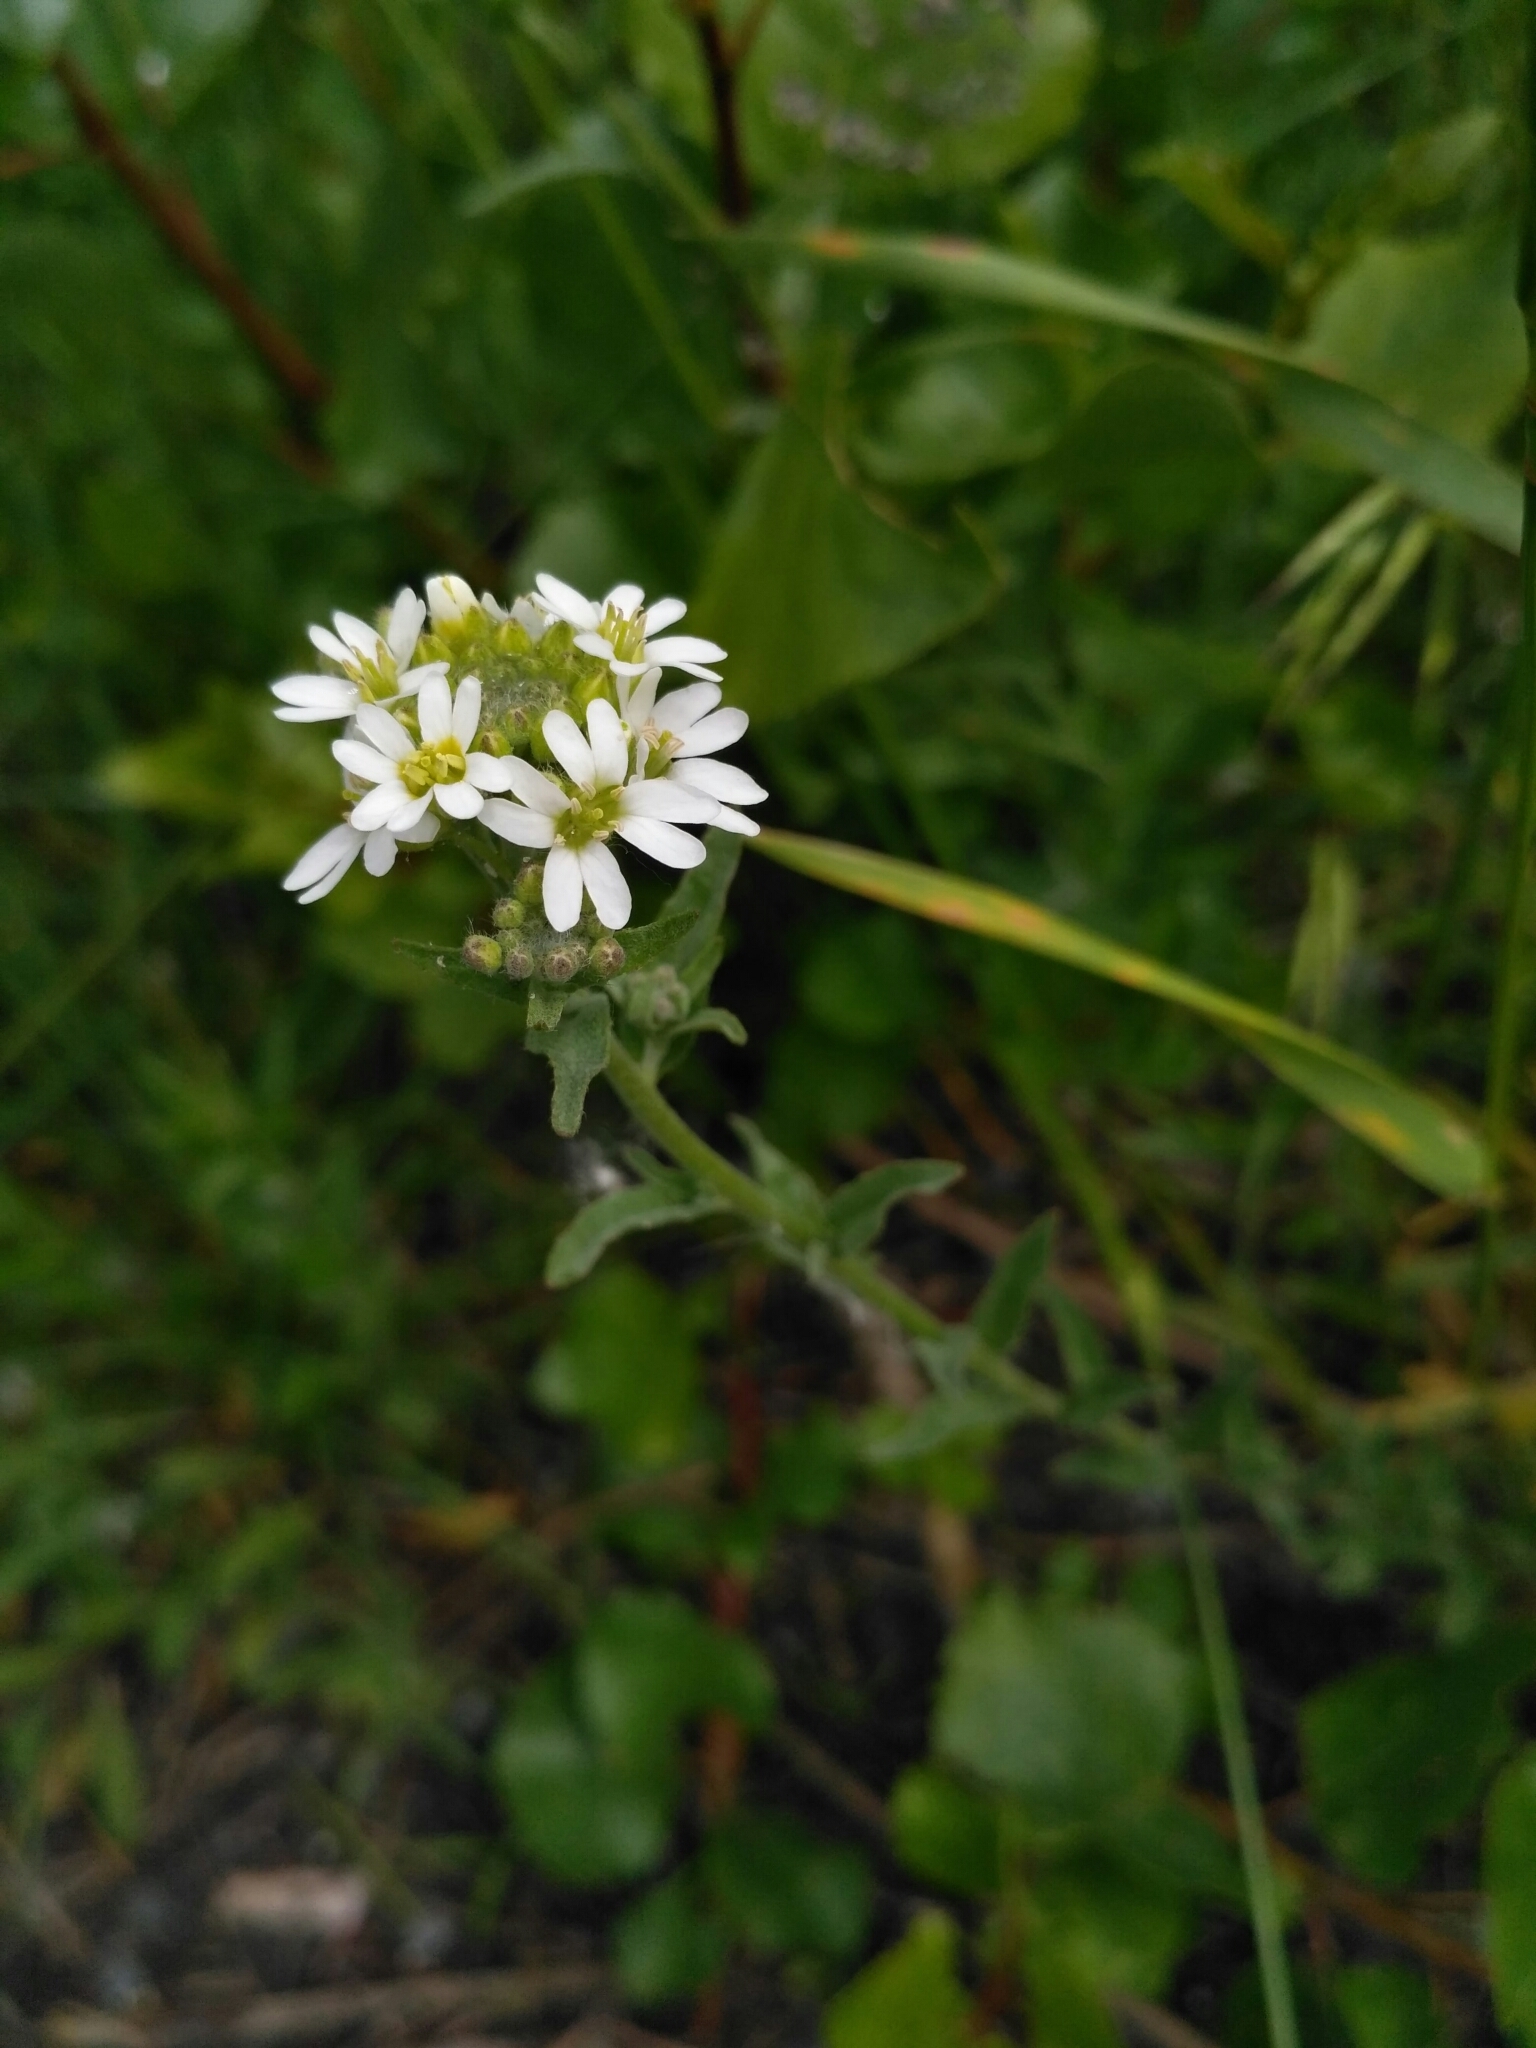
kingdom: Plantae
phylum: Tracheophyta
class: Magnoliopsida
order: Brassicales
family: Brassicaceae
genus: Berteroa
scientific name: Berteroa incana
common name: Hoary alison
